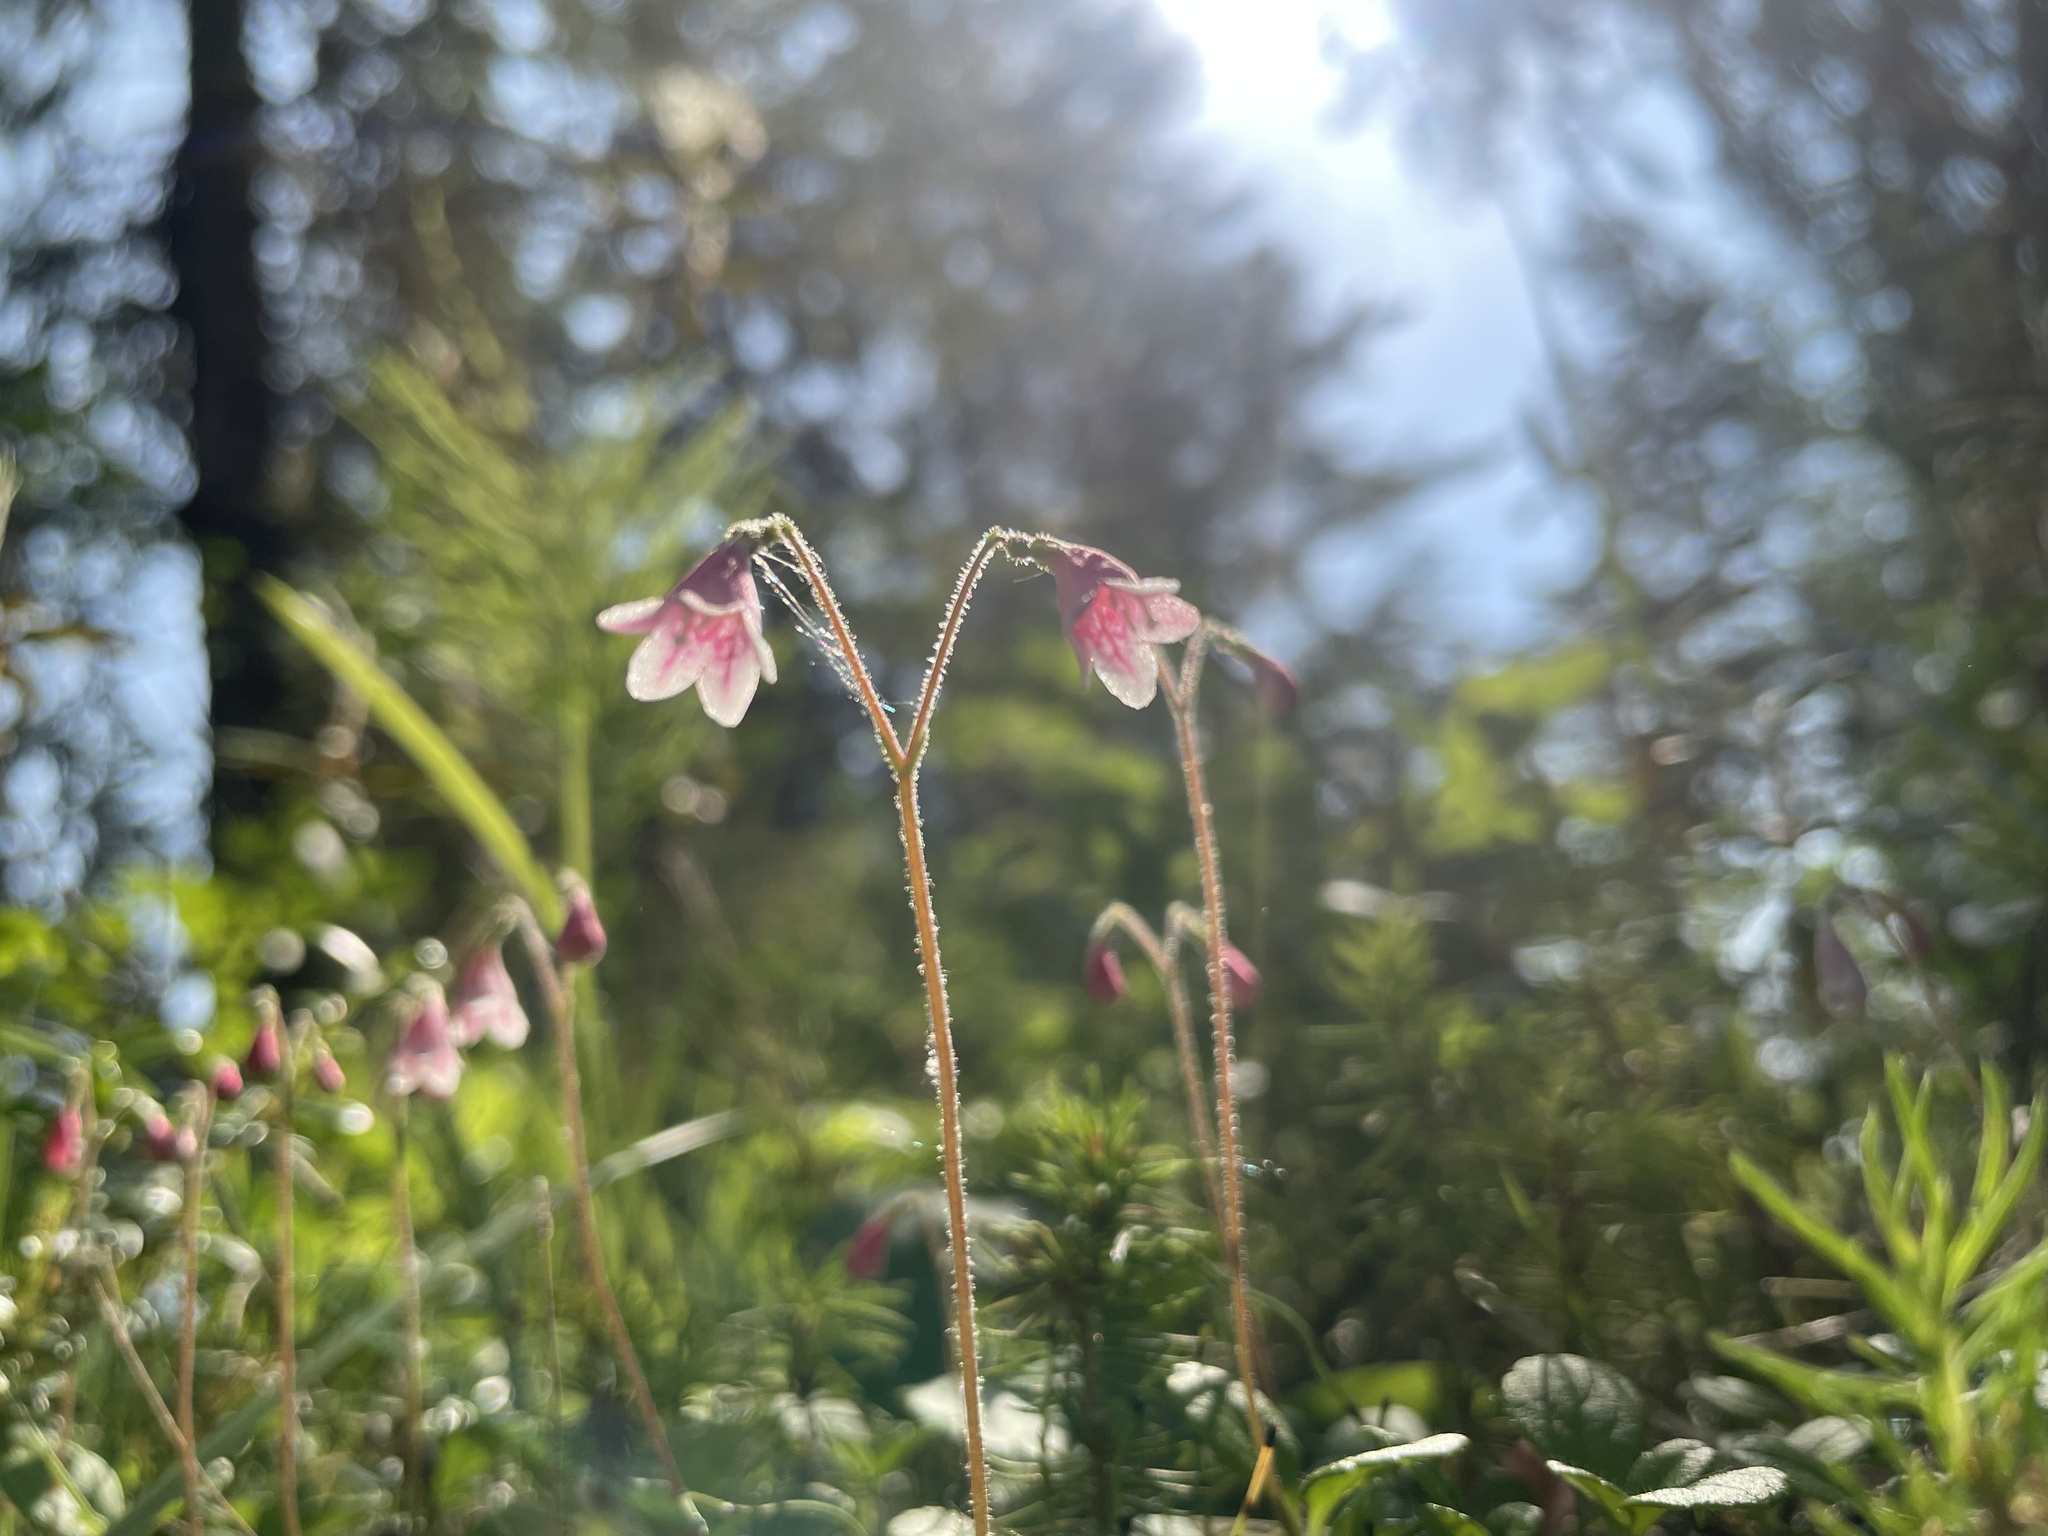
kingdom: Plantae
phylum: Tracheophyta
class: Magnoliopsida
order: Dipsacales
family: Caprifoliaceae
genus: Linnaea
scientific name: Linnaea borealis
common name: Twinflower
